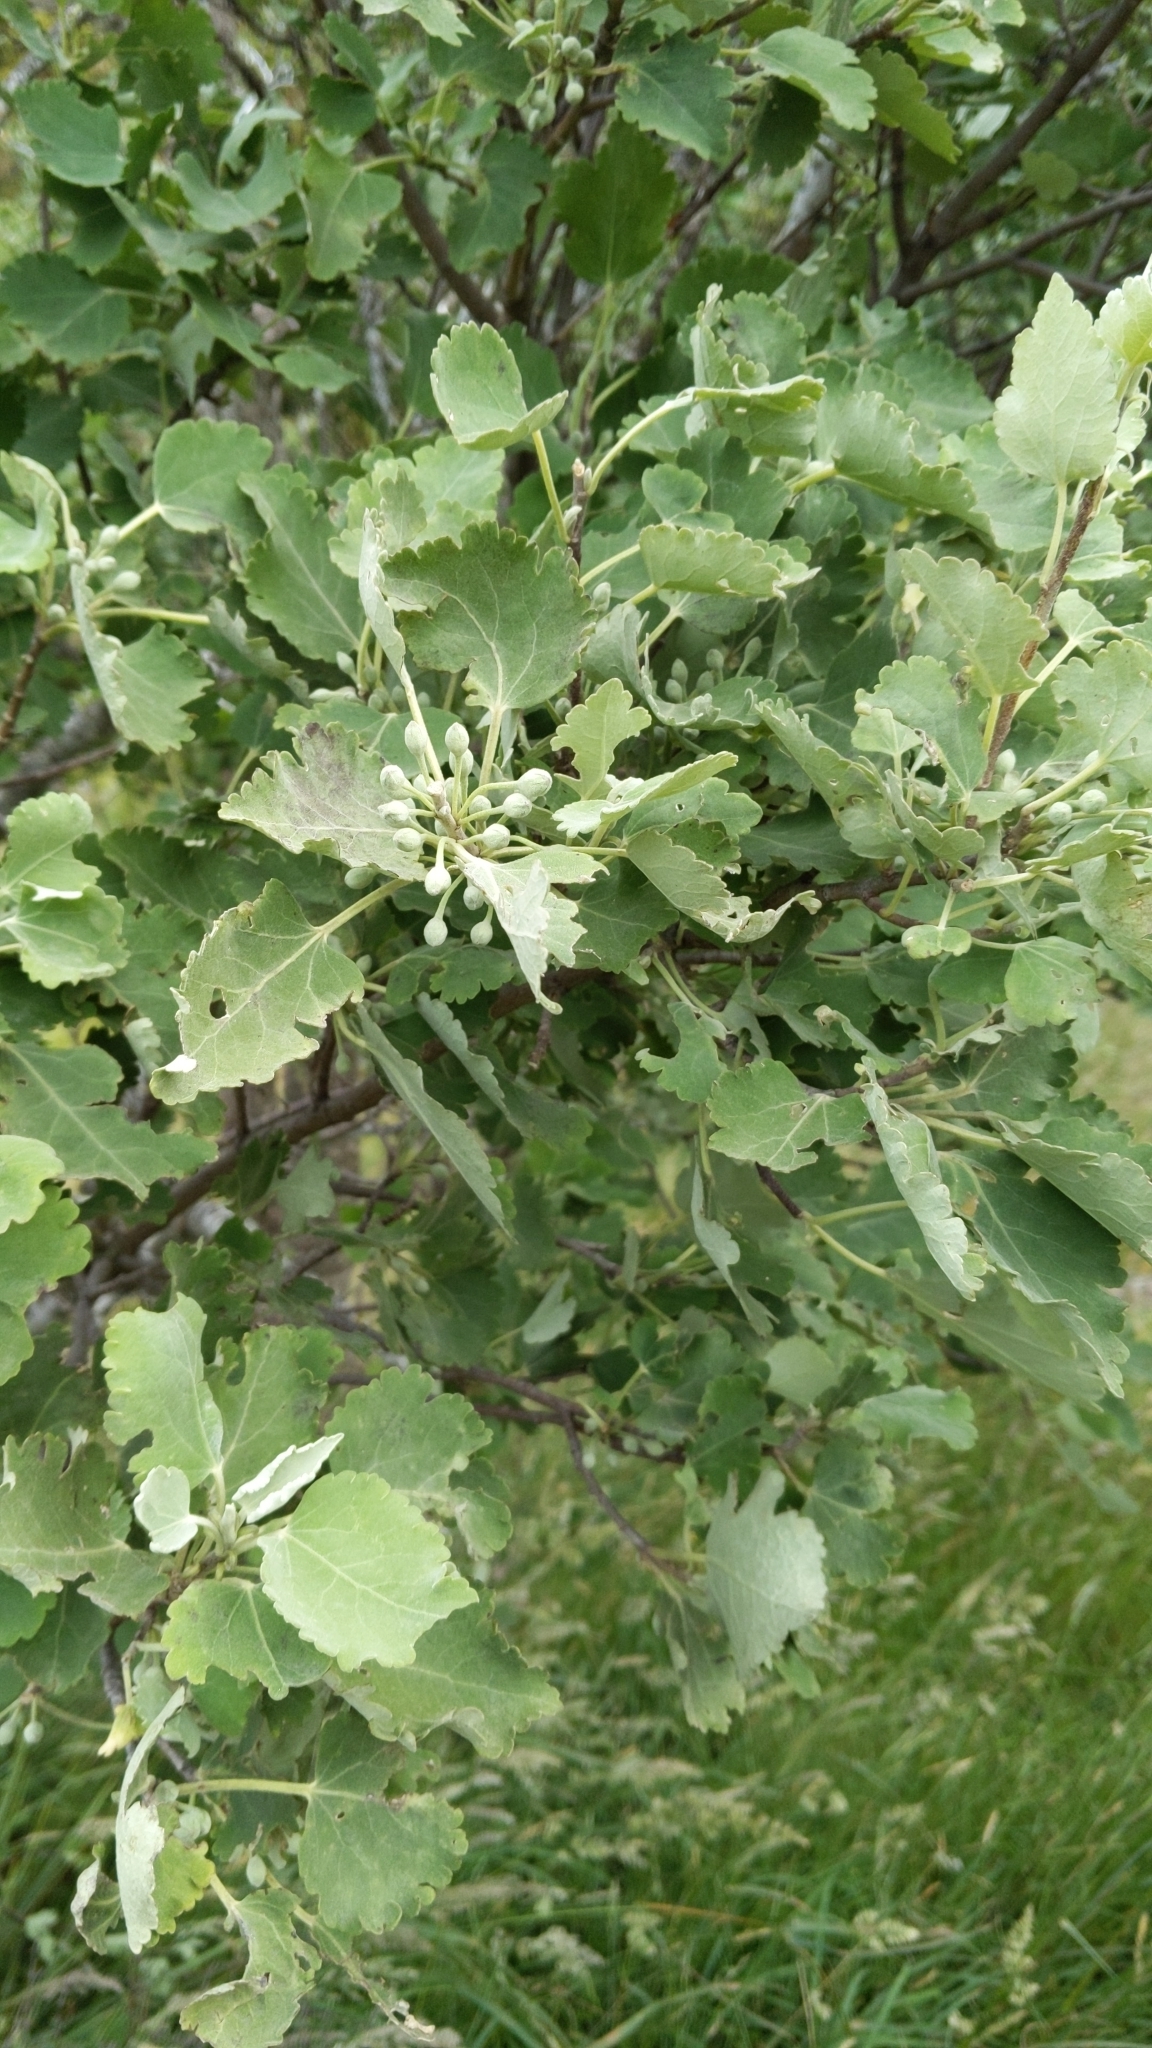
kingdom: Plantae
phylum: Tracheophyta
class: Magnoliopsida
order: Malvales
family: Malvaceae
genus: Hoheria
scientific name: Hoheria lyallii
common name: Lacebark
